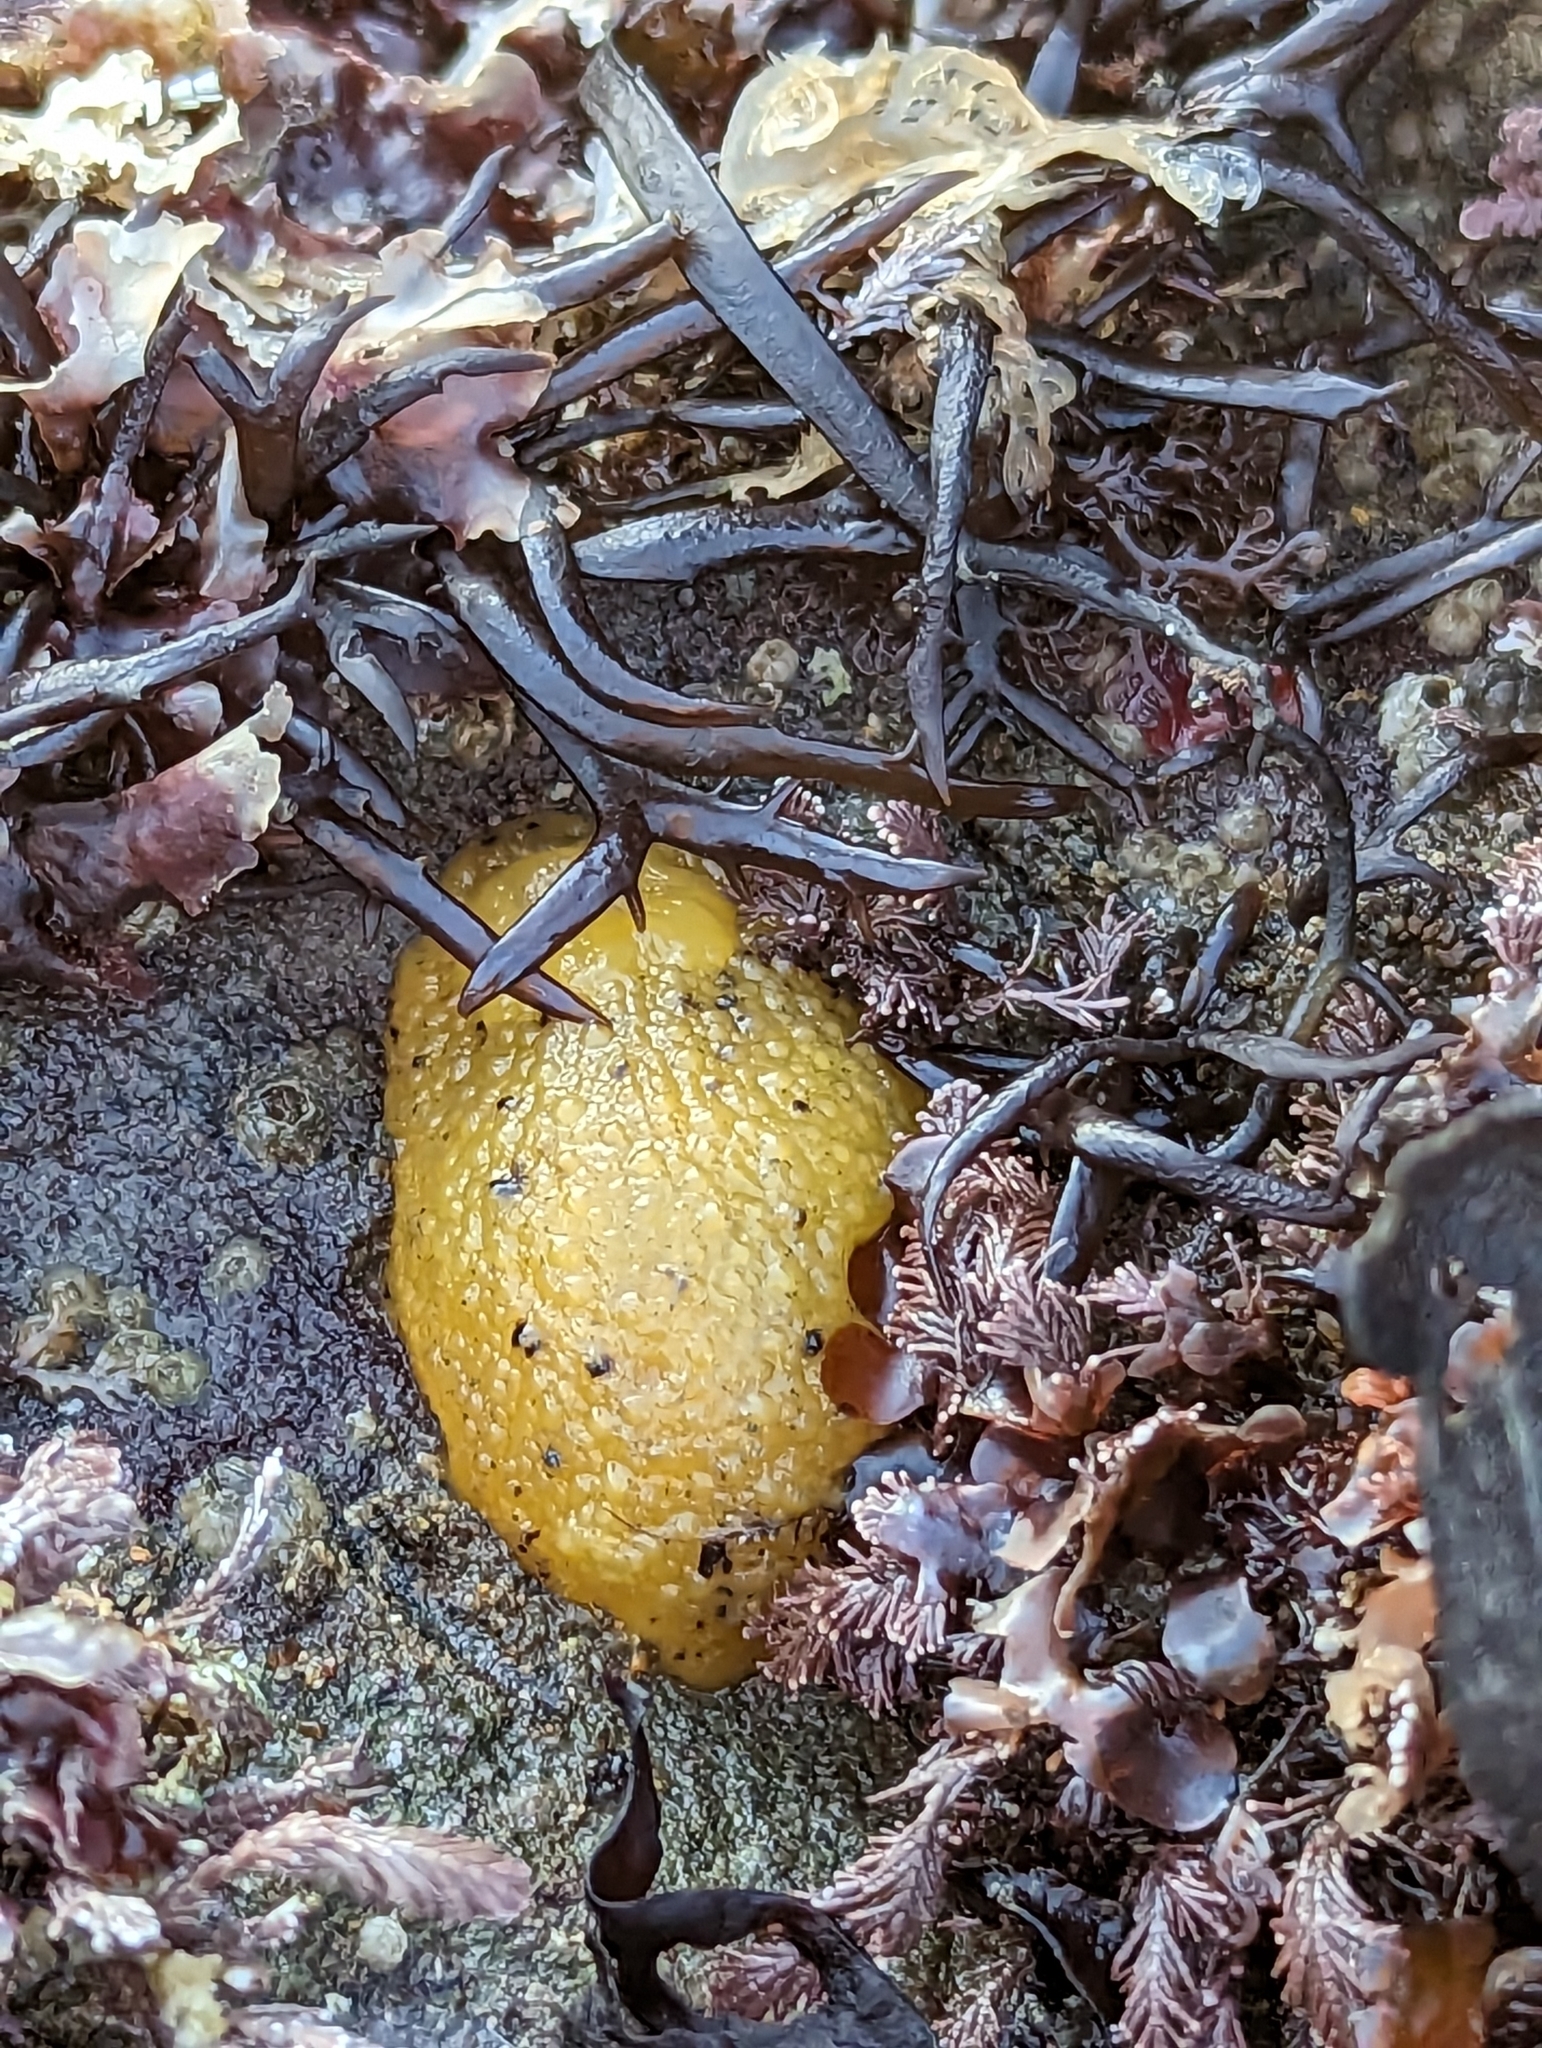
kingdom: Animalia
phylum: Mollusca
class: Gastropoda
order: Nudibranchia
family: Dorididae
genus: Doris
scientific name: Doris montereyensis
